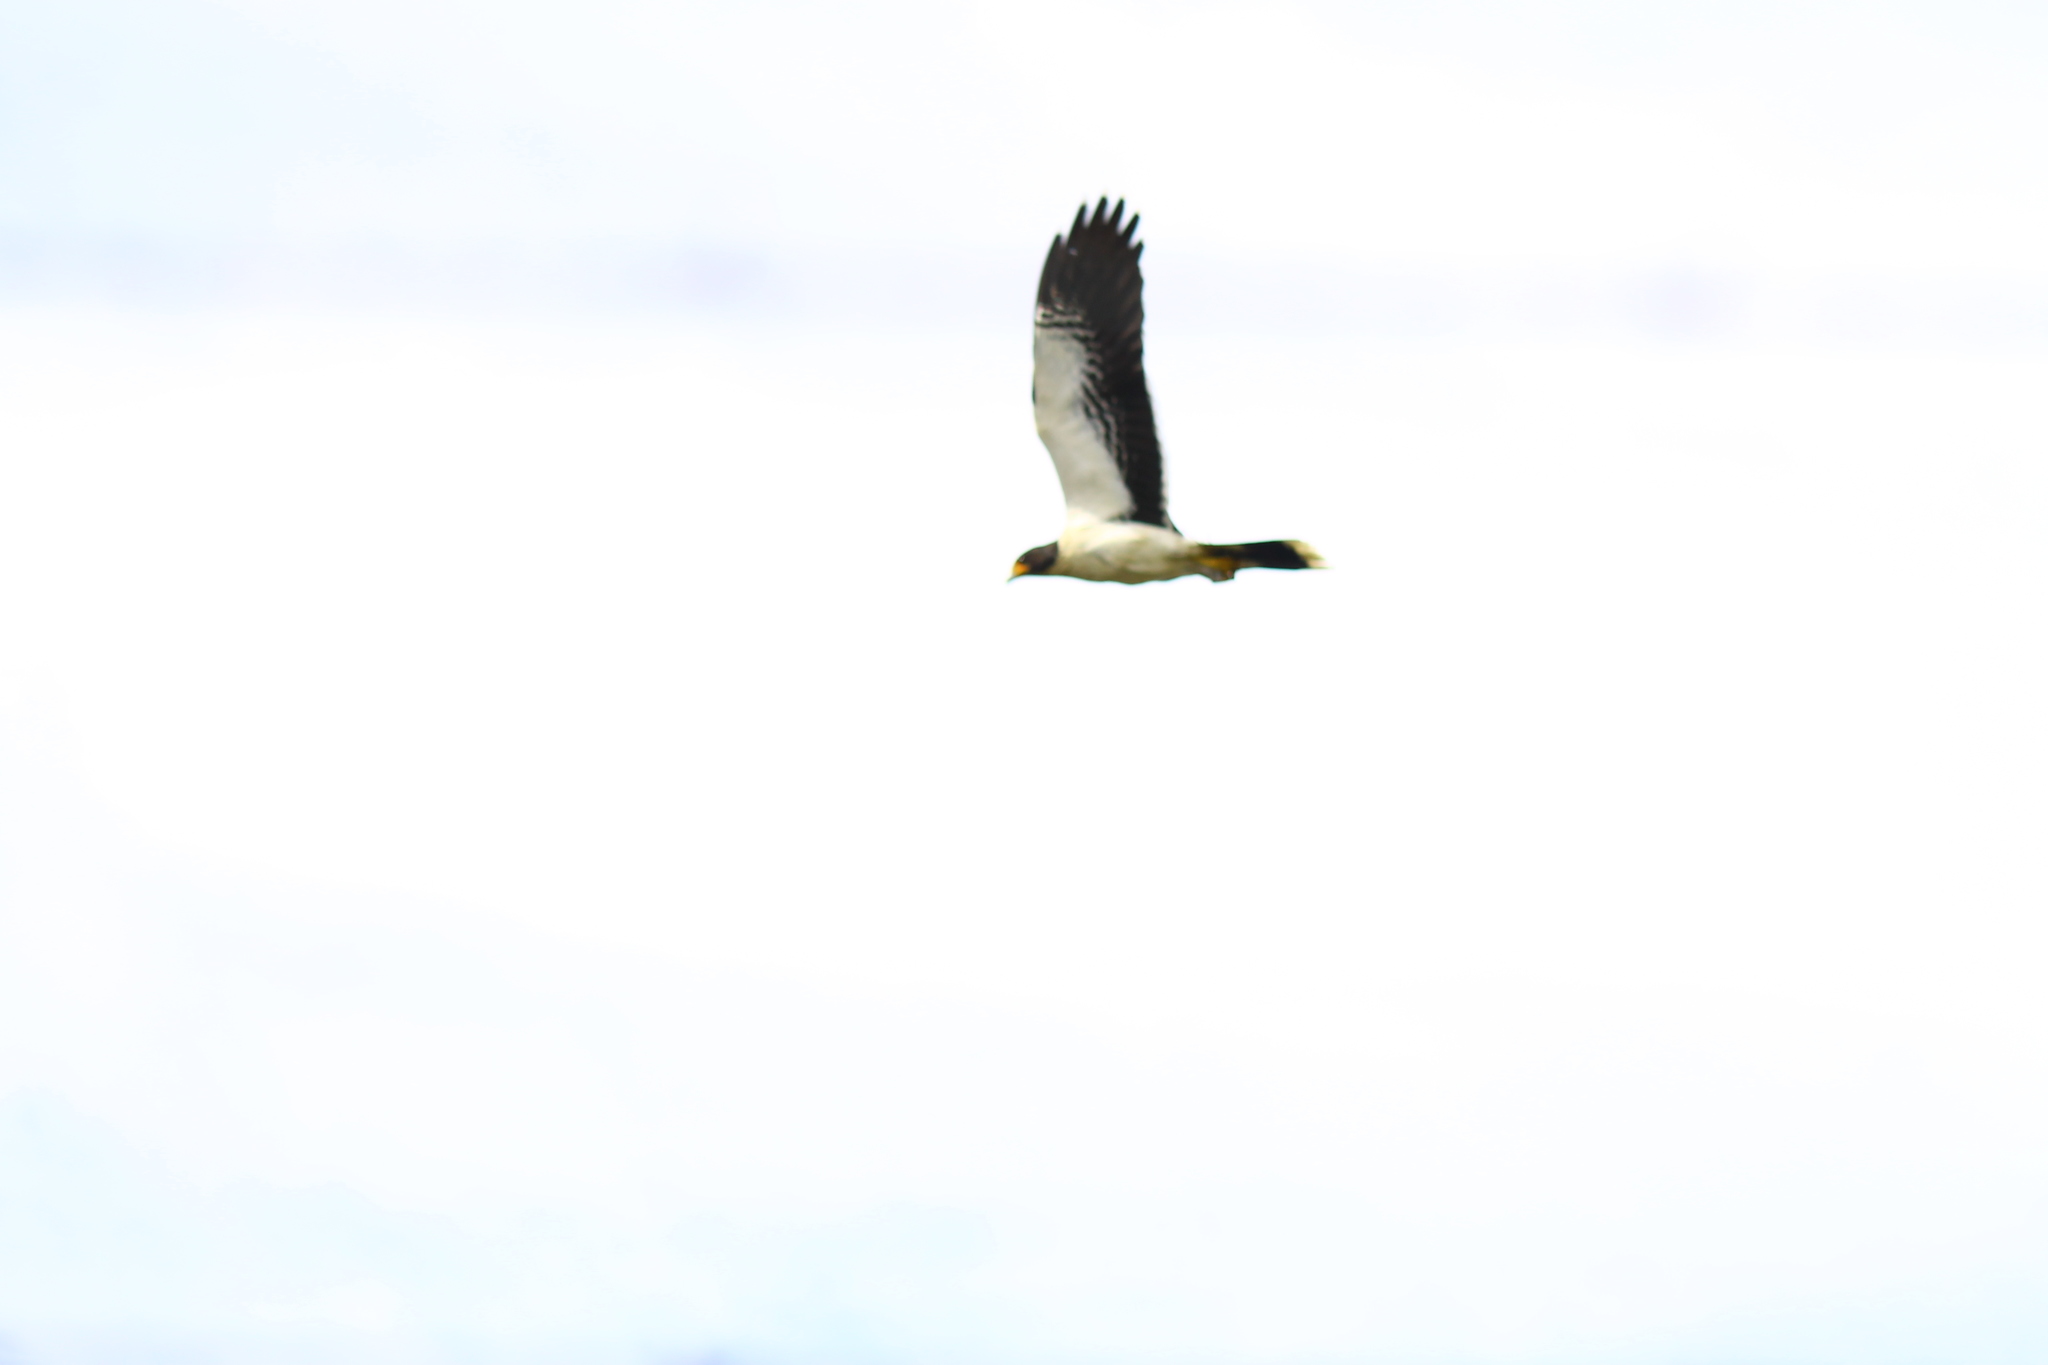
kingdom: Animalia
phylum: Chordata
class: Aves
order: Falconiformes
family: Falconidae
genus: Daptrius
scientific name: Daptrius
